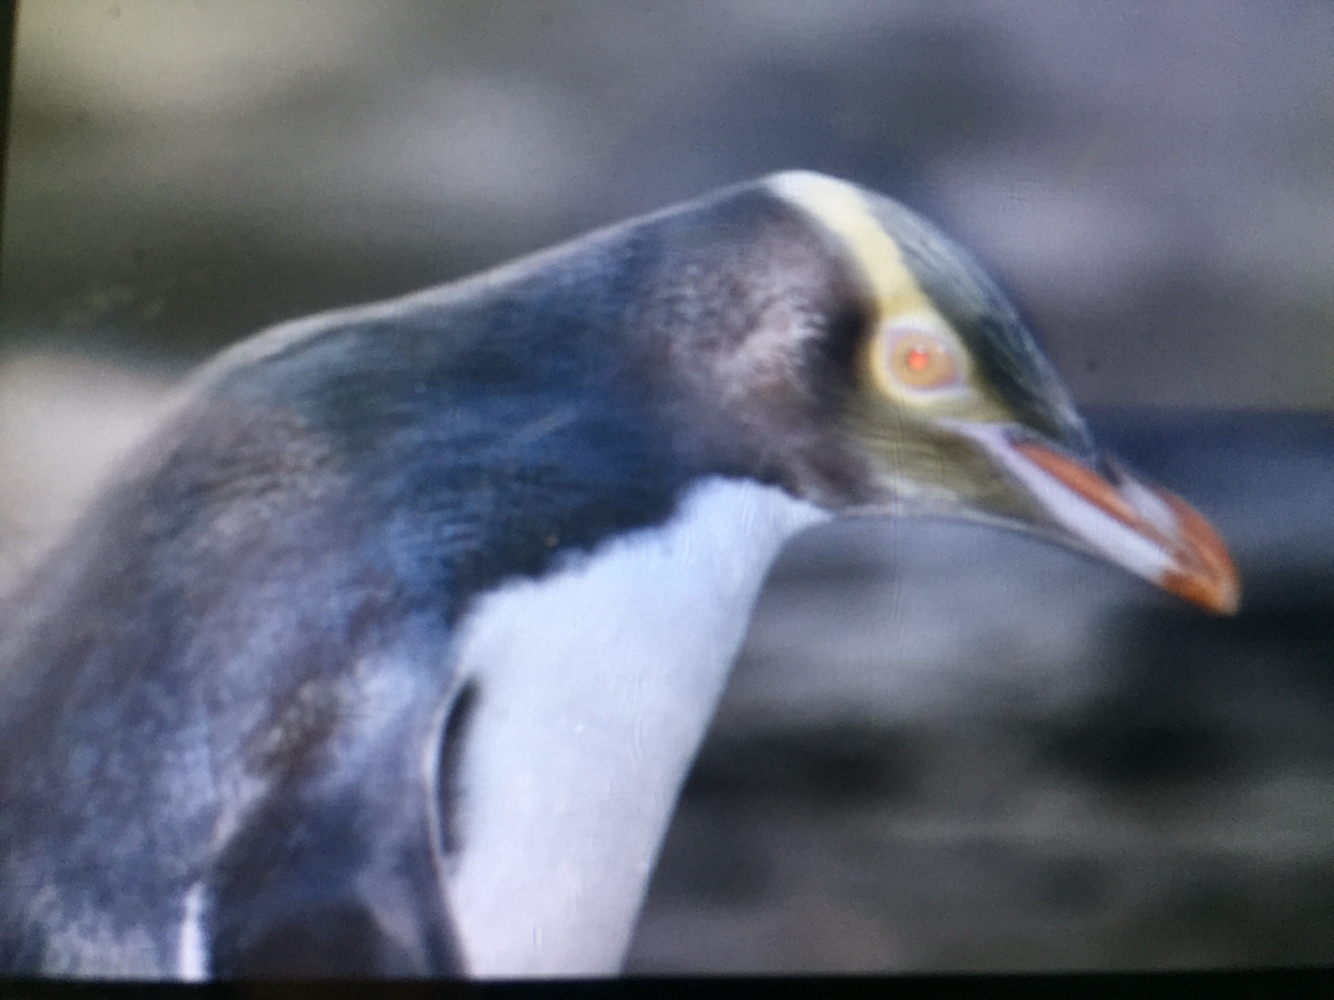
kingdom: Animalia
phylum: Chordata
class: Aves
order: Sphenisciformes
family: Spheniscidae
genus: Megadyptes
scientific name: Megadyptes antipodes
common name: Yellow-eyed penguin
